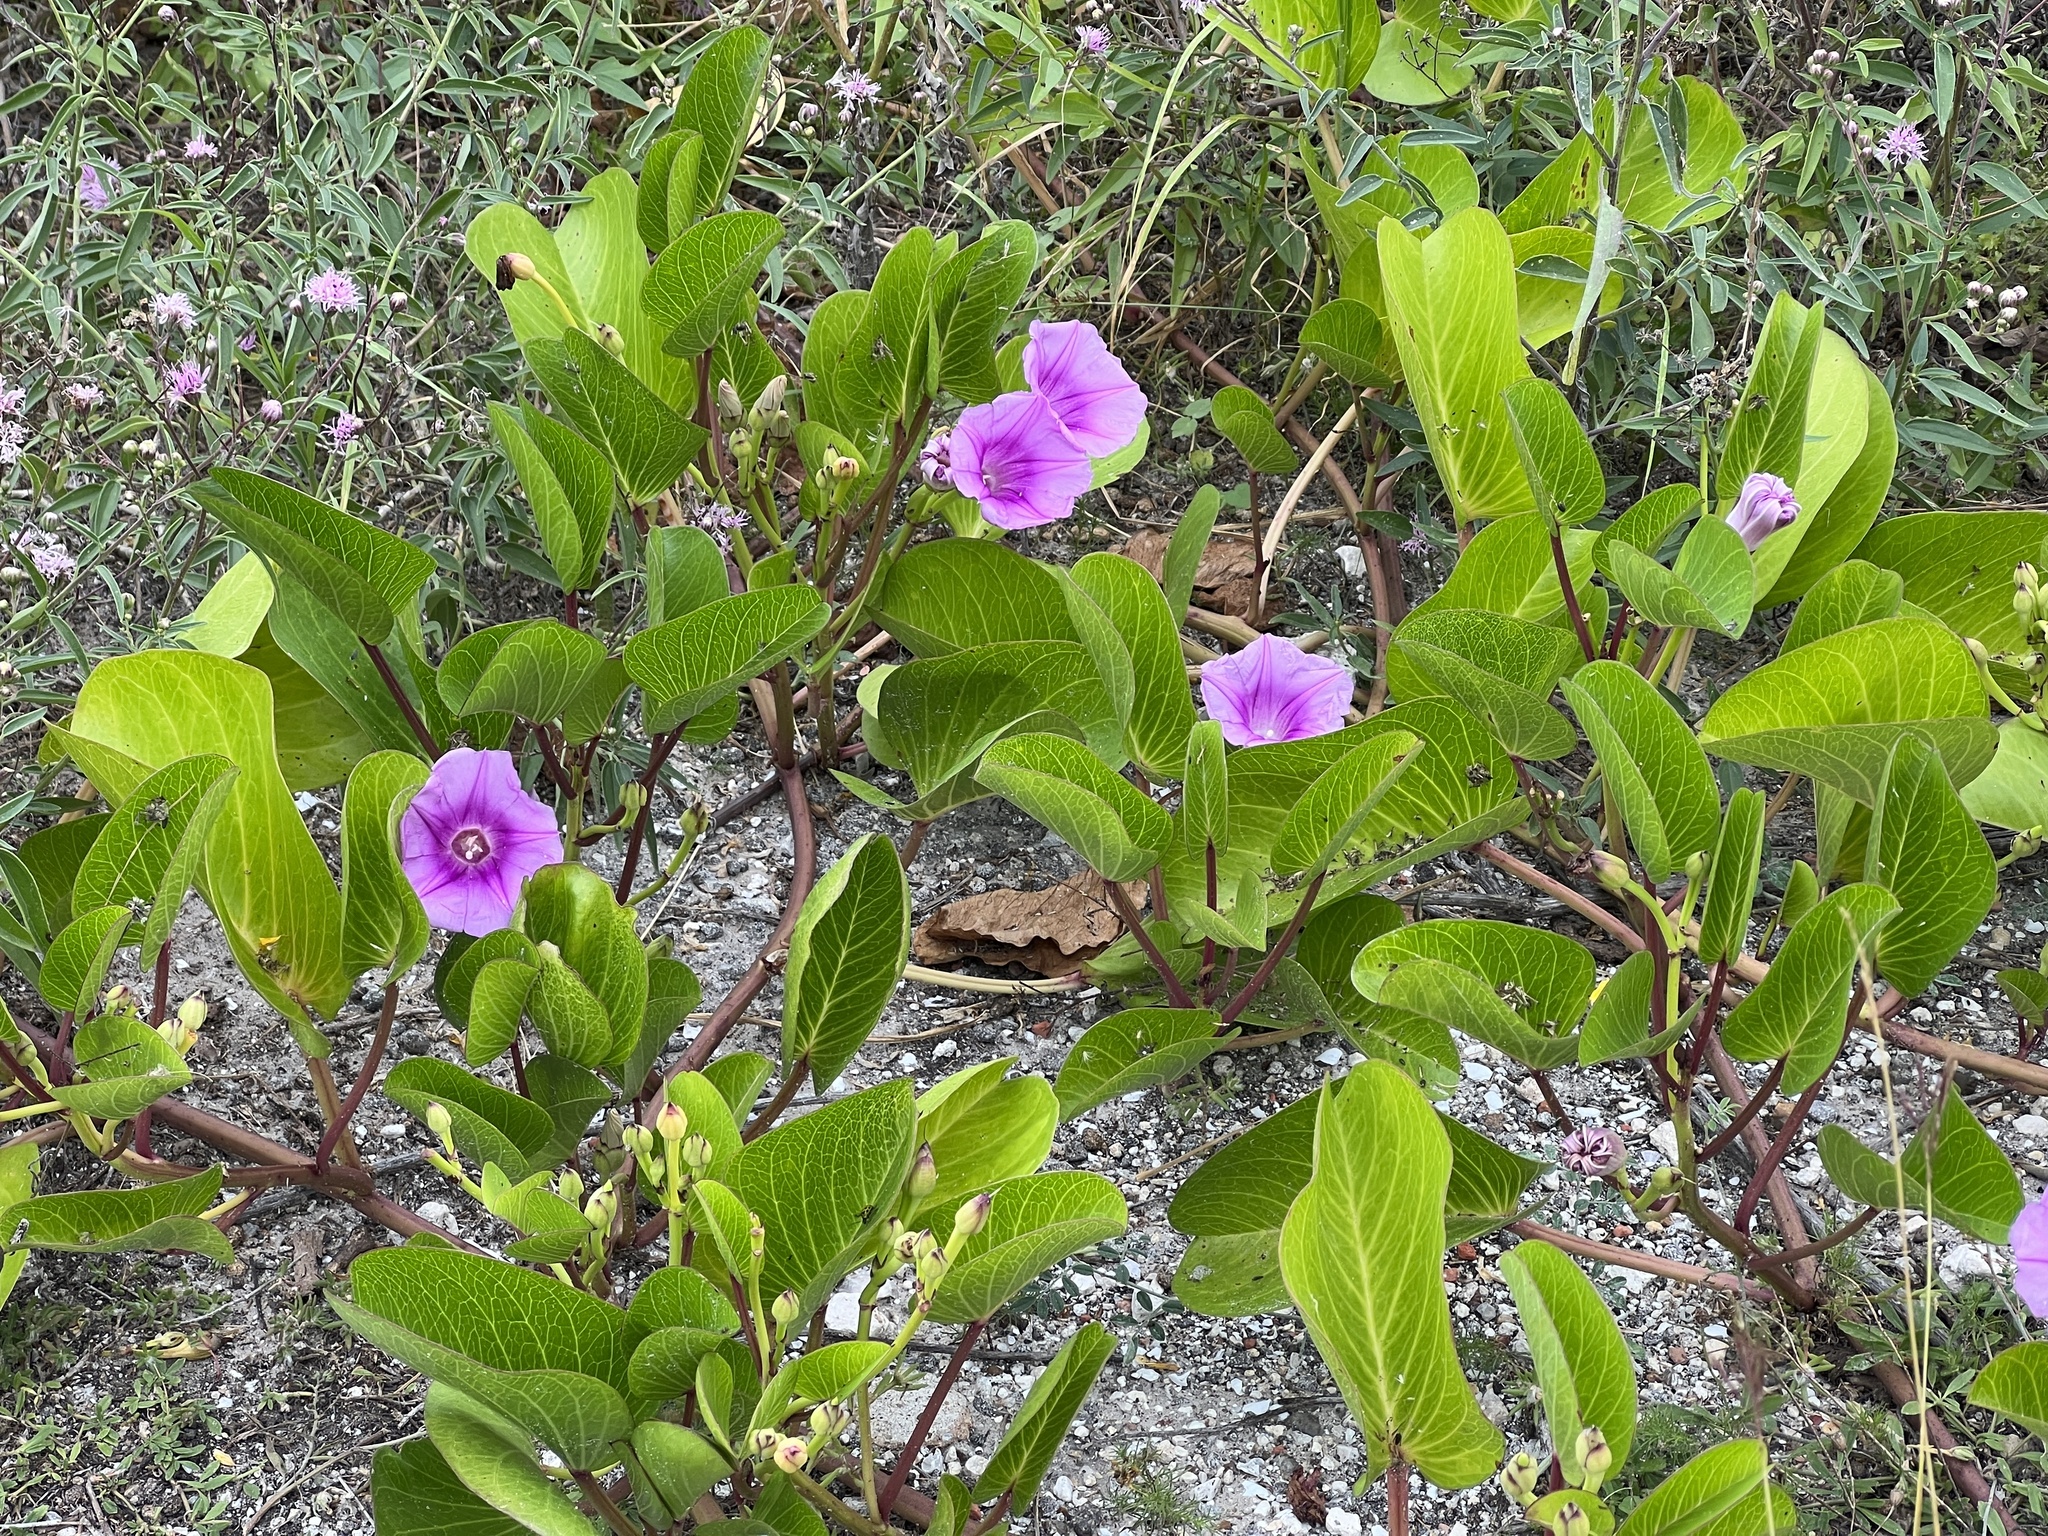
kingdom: Plantae
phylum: Tracheophyta
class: Magnoliopsida
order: Solanales
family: Convolvulaceae
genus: Ipomoea
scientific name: Ipomoea pes-caprae
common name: Beach morning glory
